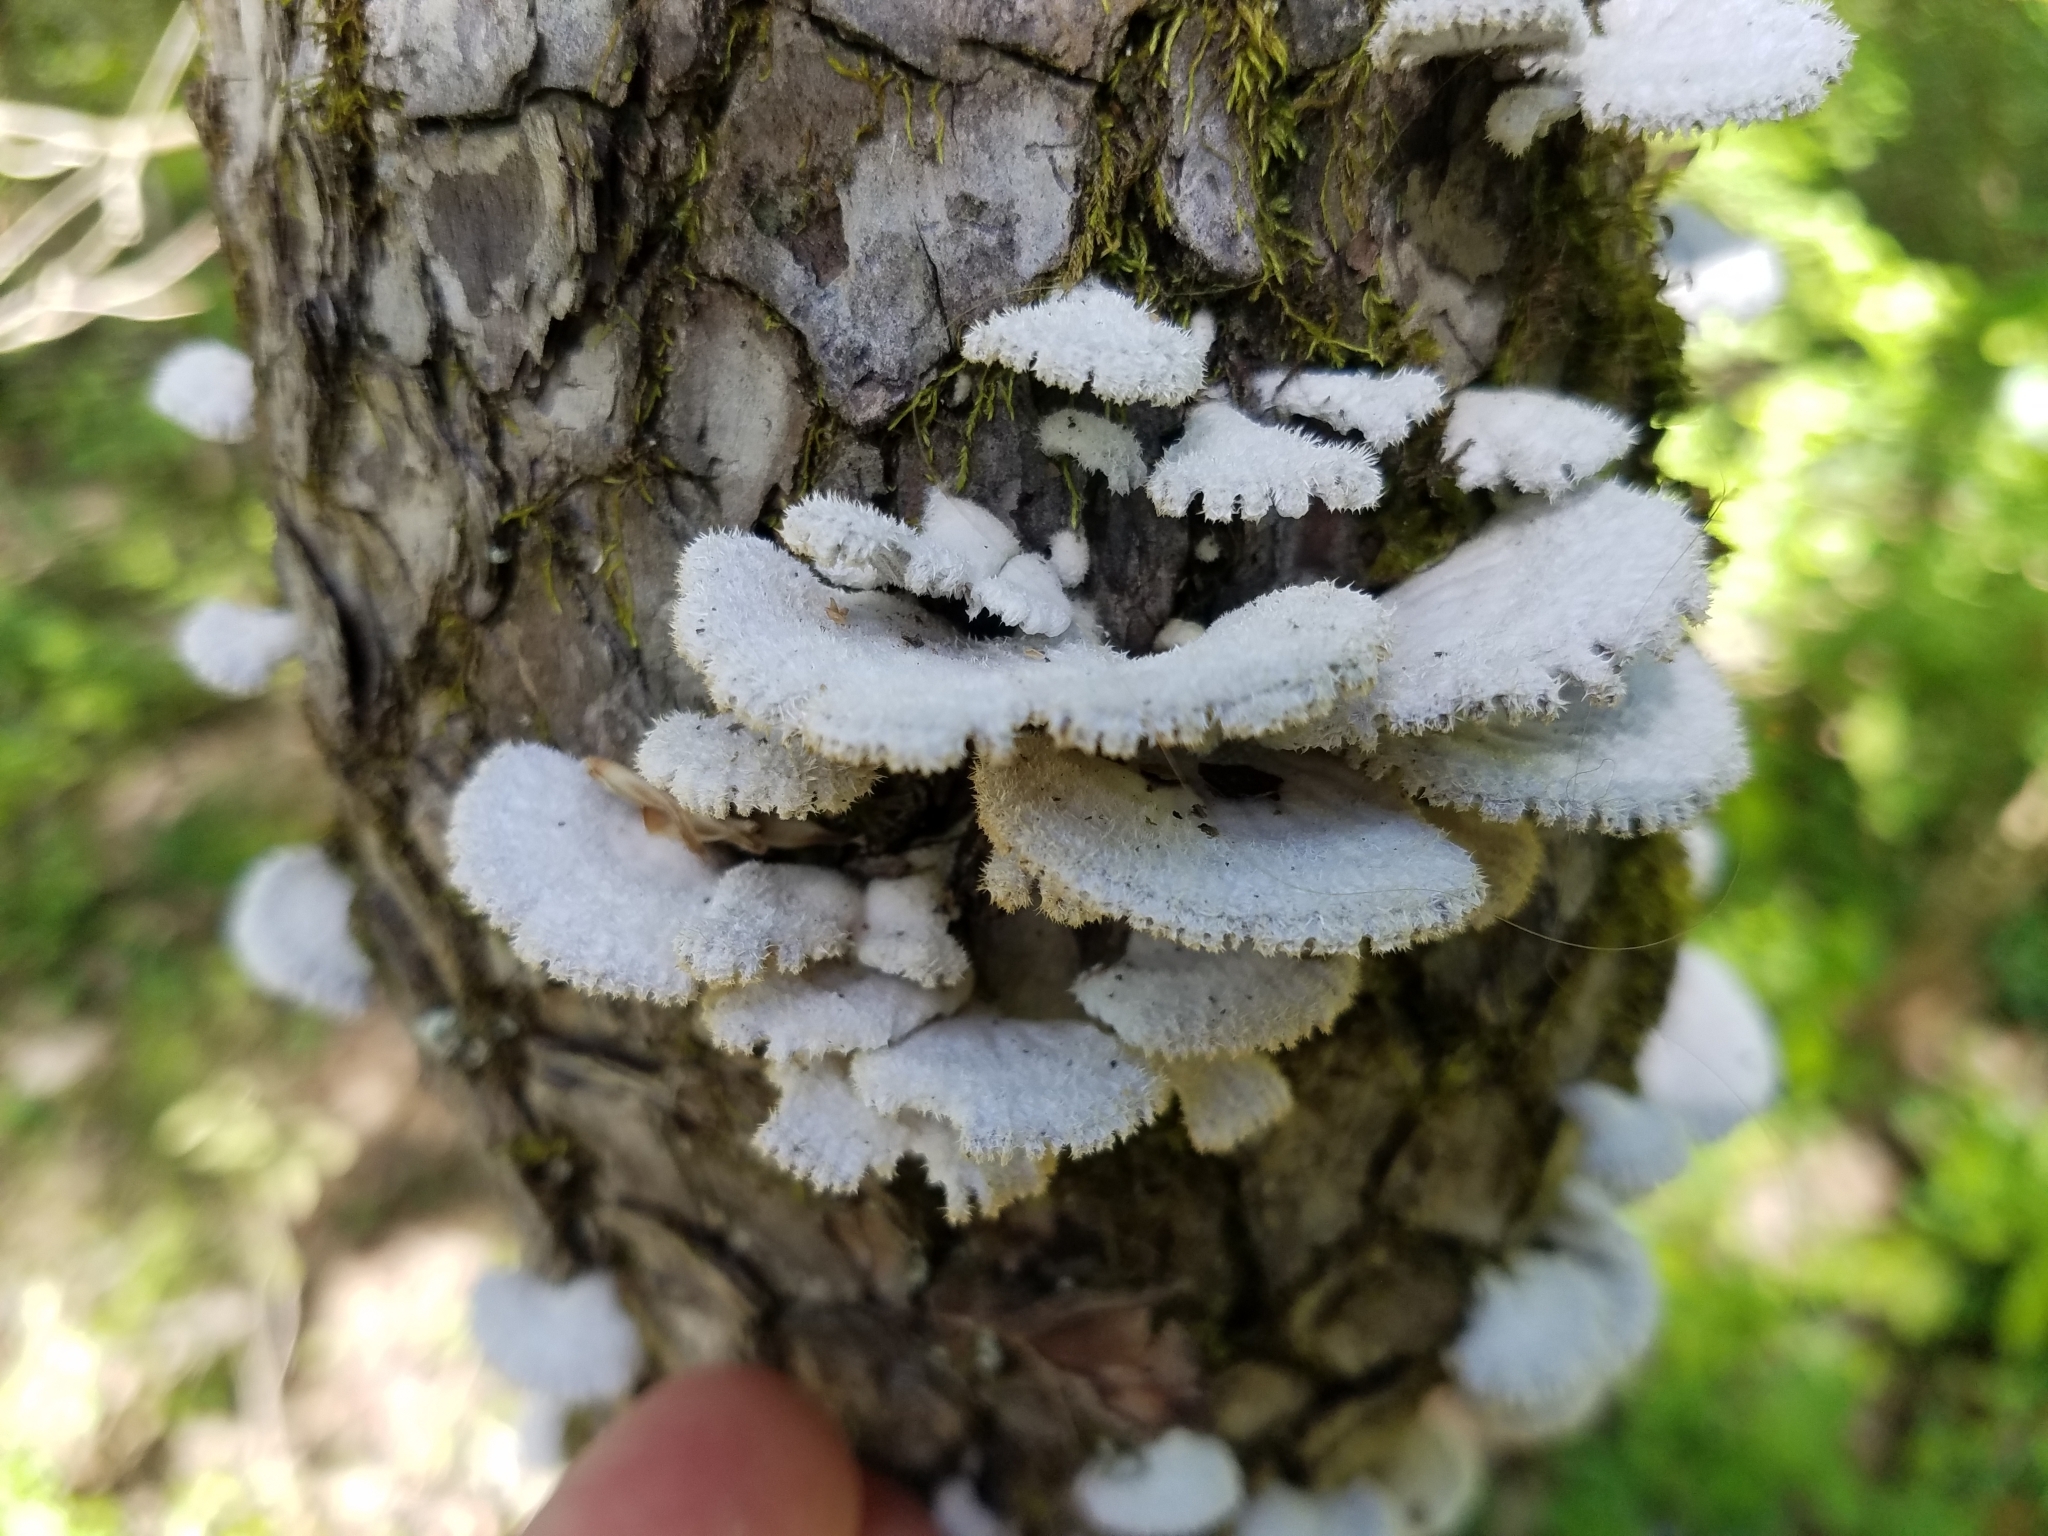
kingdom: Fungi
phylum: Basidiomycota
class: Agaricomycetes
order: Agaricales
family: Schizophyllaceae
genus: Schizophyllum
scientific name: Schizophyllum commune
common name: Common porecrust
